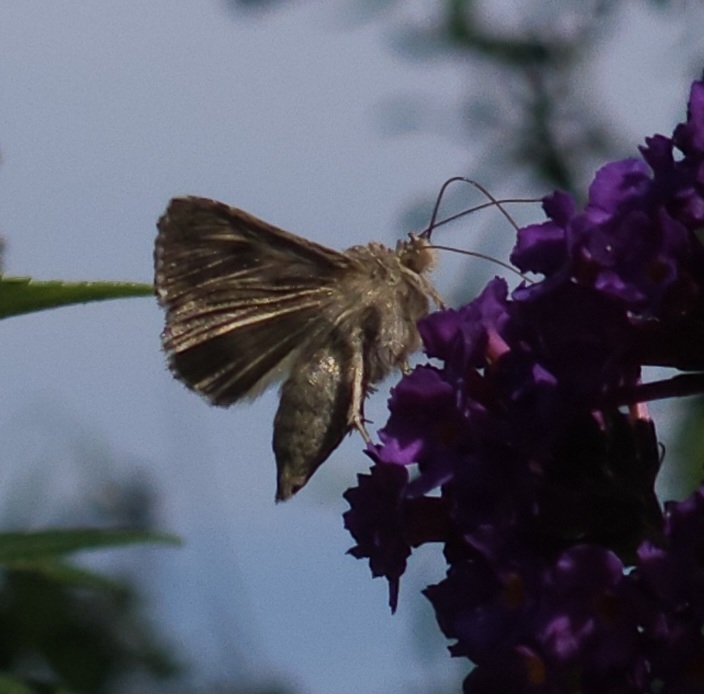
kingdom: Animalia
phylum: Arthropoda
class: Insecta
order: Lepidoptera
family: Noctuidae
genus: Autographa
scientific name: Autographa gamma
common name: Silver y
